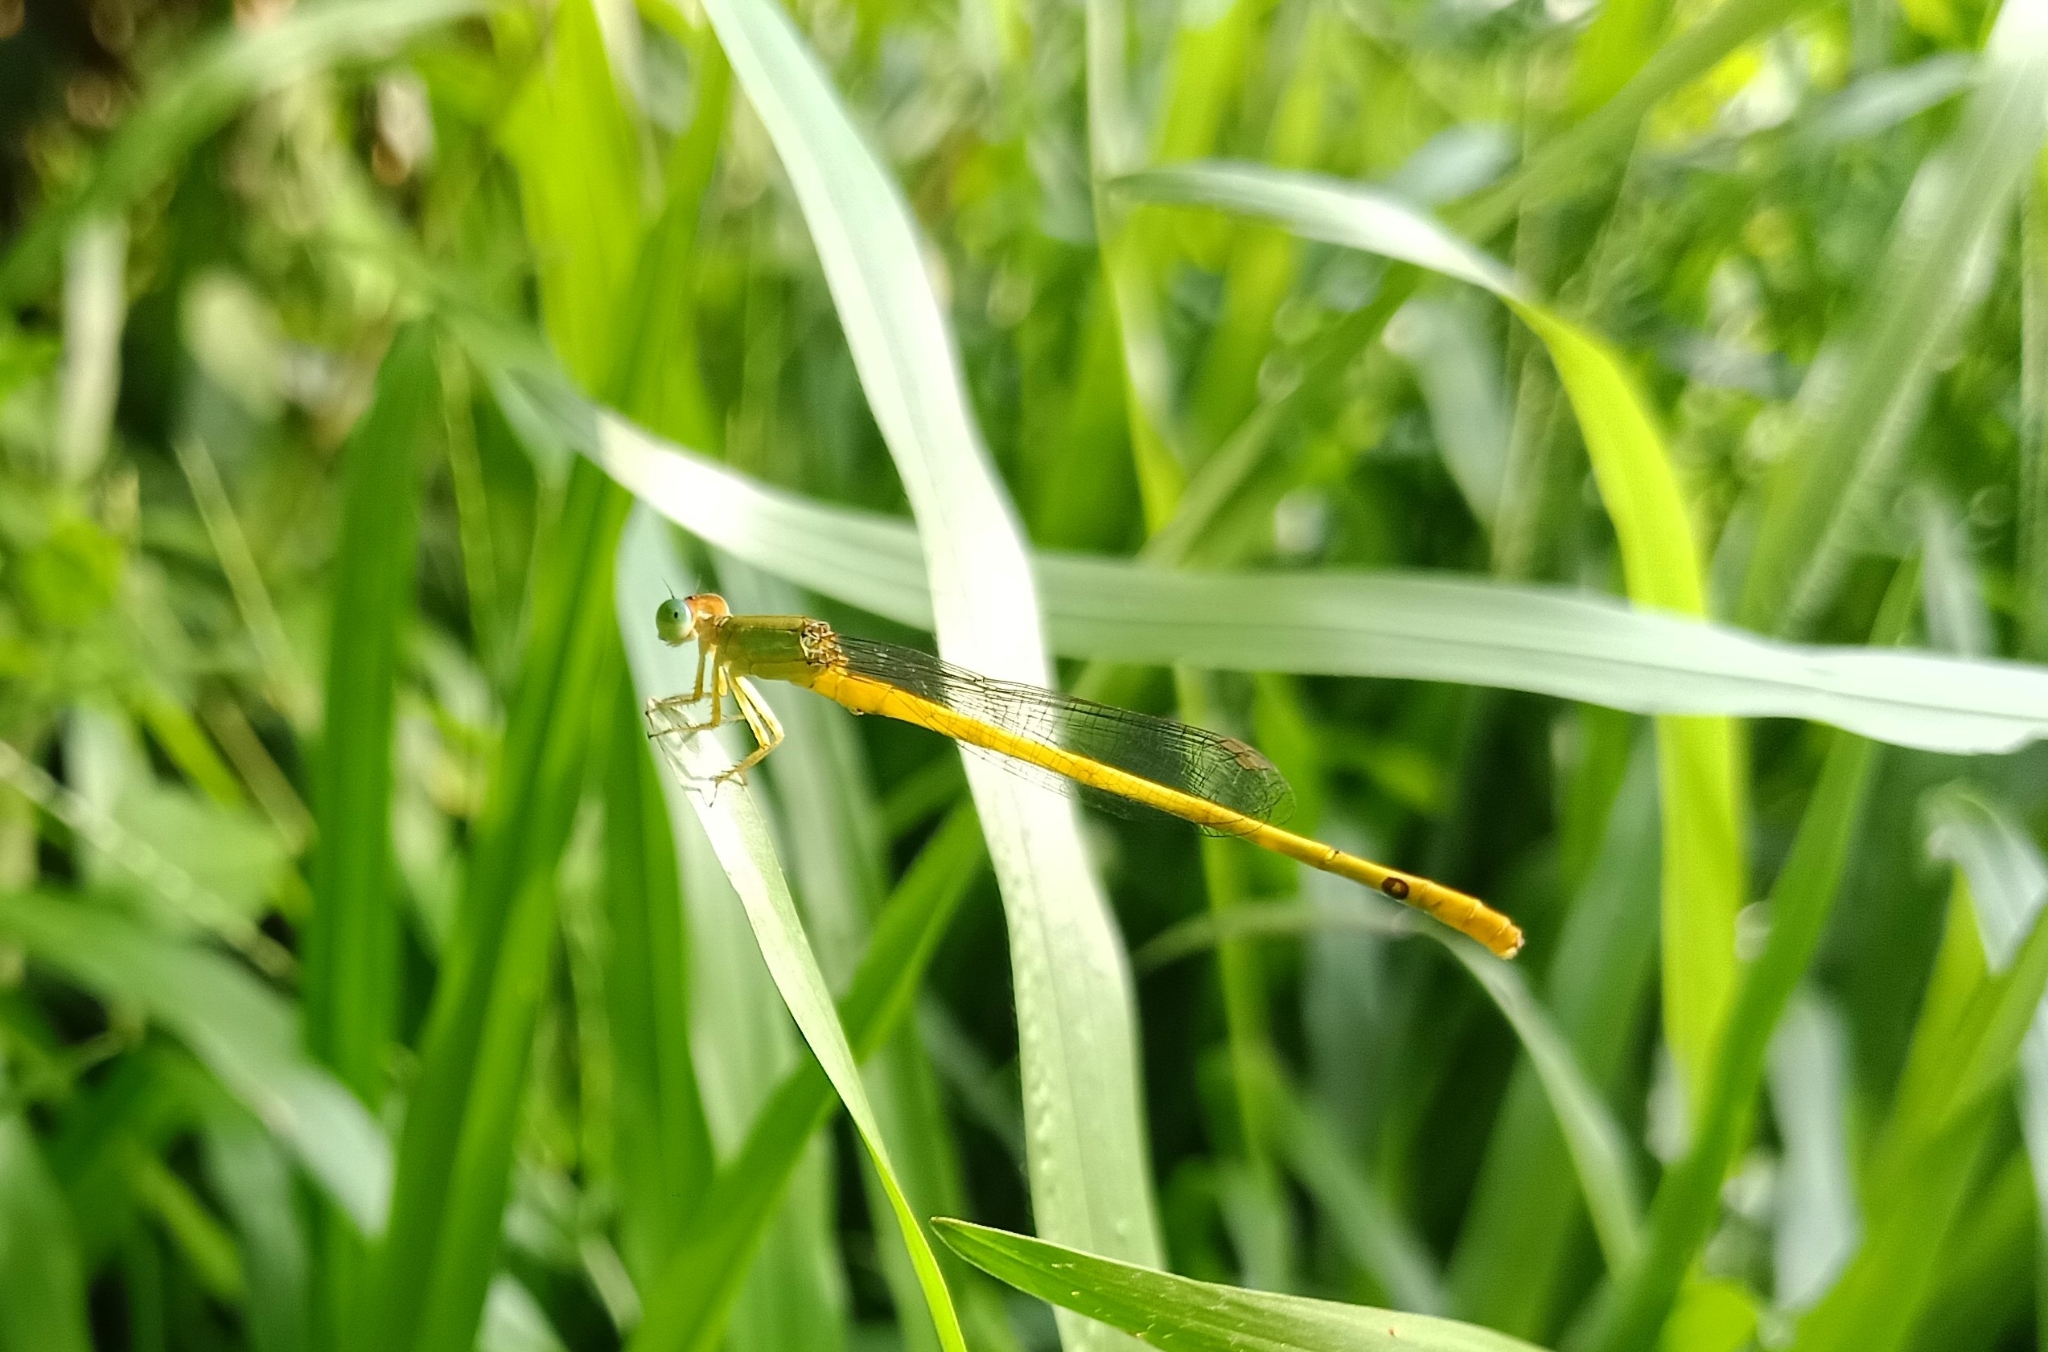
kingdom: Animalia
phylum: Arthropoda
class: Insecta
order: Odonata
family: Coenagrionidae
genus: Ceriagrion
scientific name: Ceriagrion coromandelianum
